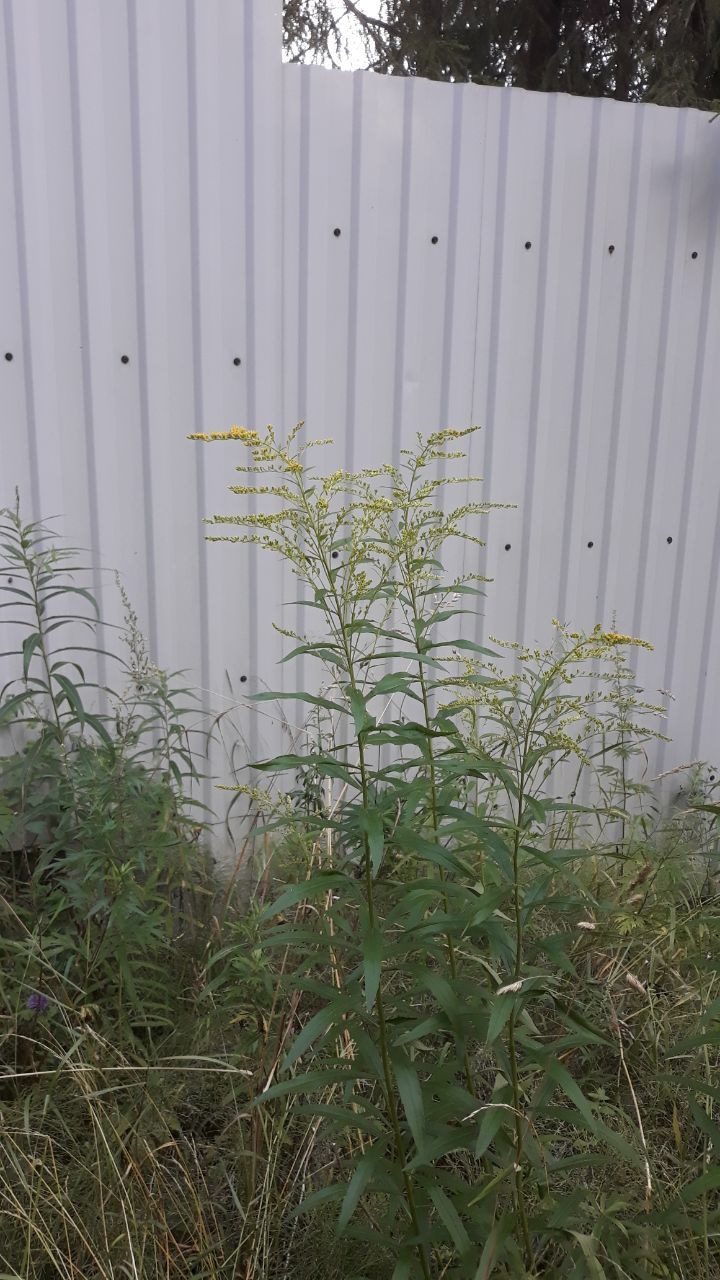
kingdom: Plantae
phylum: Tracheophyta
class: Magnoliopsida
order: Asterales
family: Asteraceae
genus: Solidago
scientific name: Solidago canadensis
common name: Canada goldenrod
